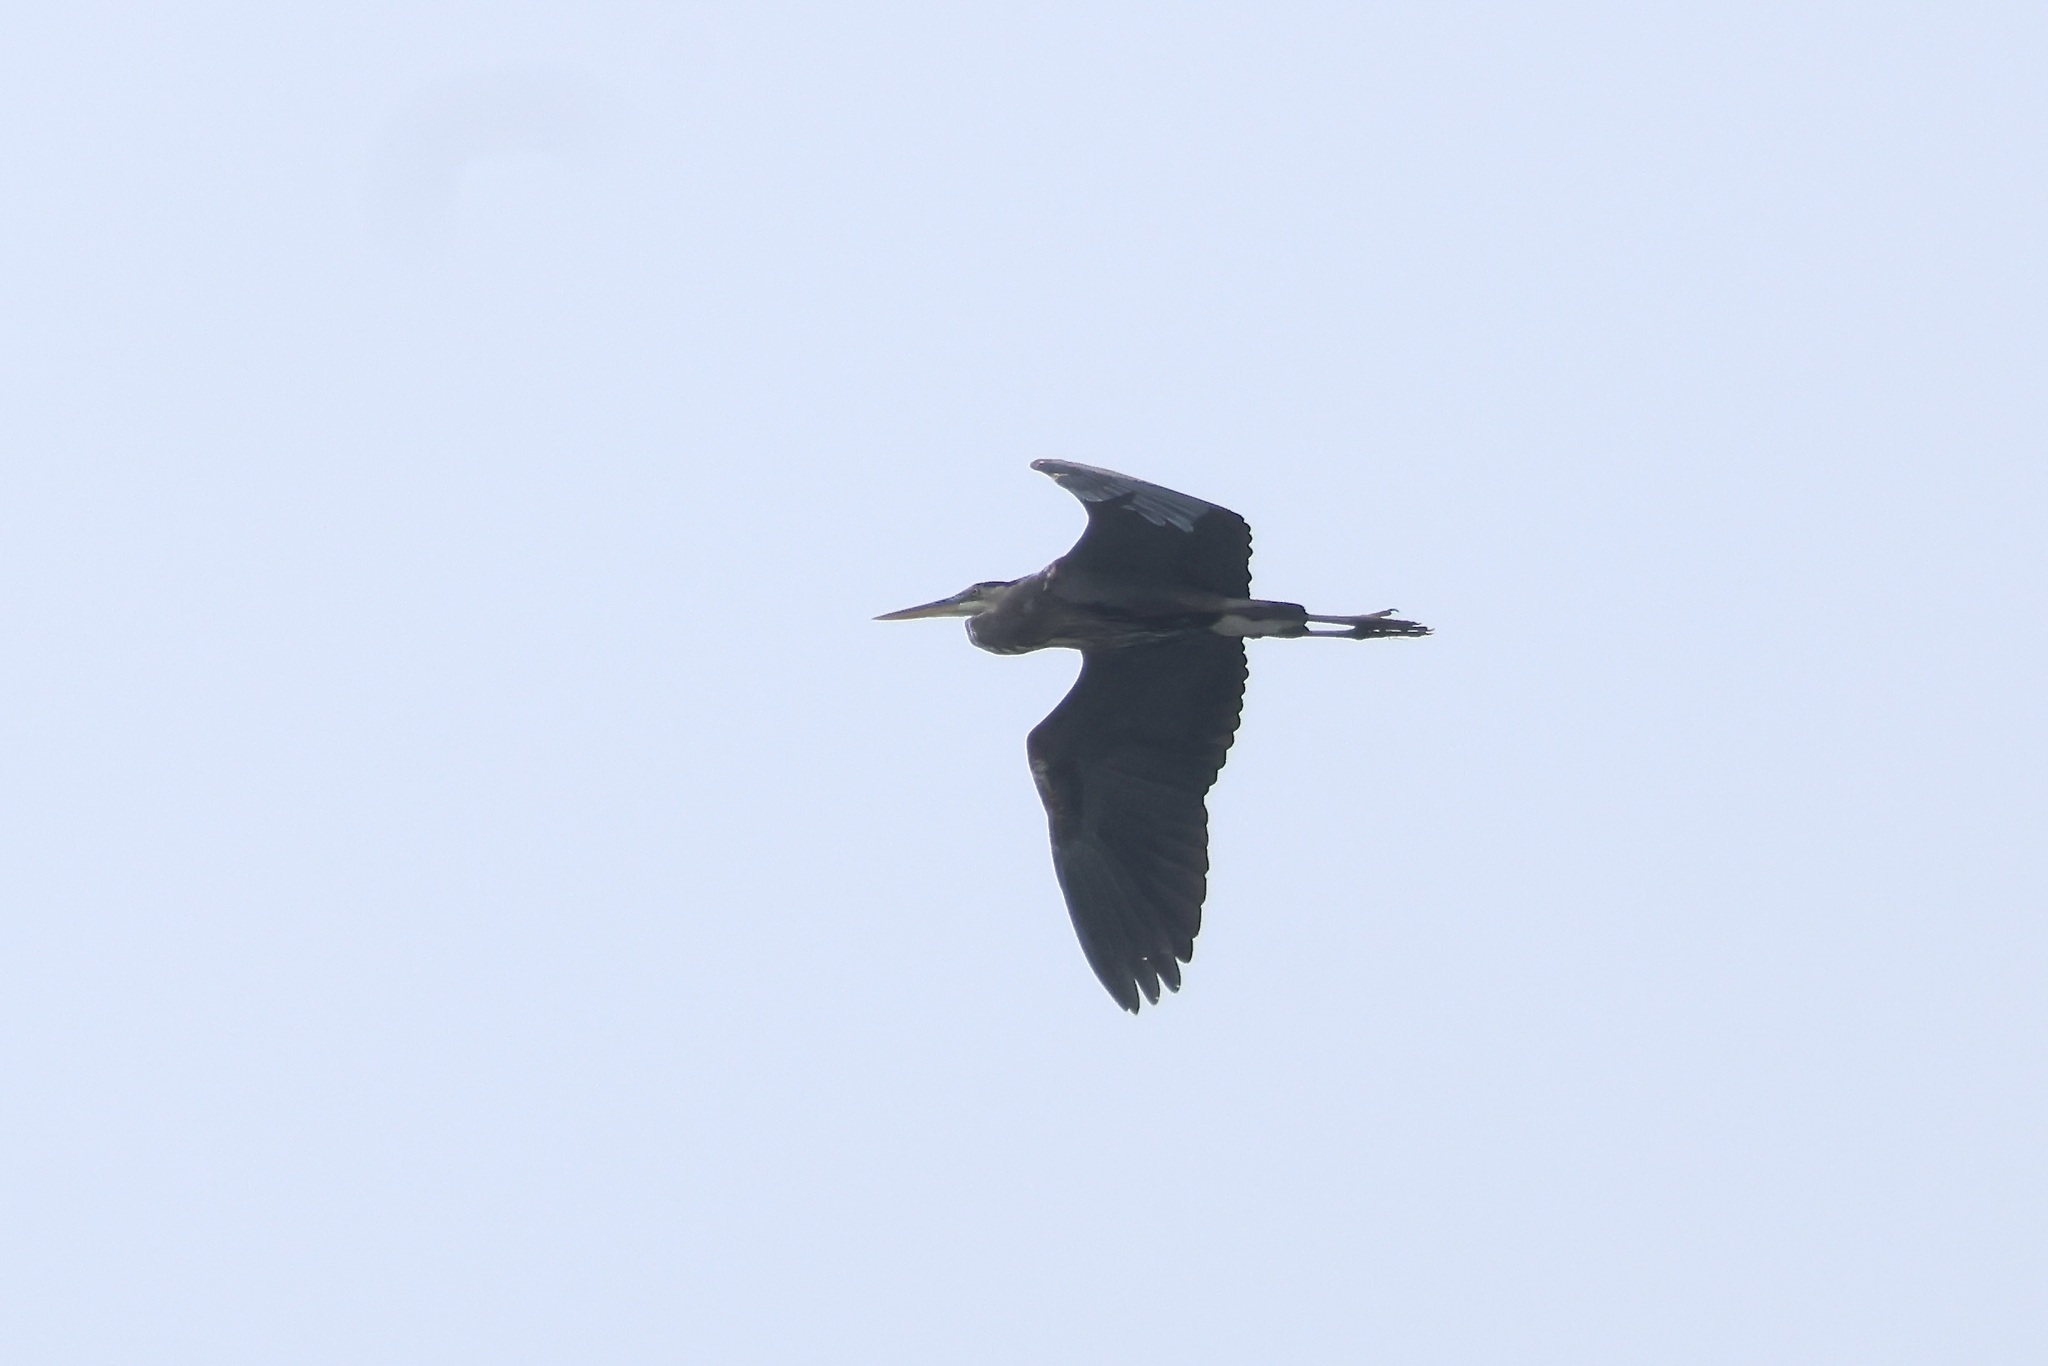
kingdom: Animalia
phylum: Chordata
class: Aves
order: Pelecaniformes
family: Ardeidae
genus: Ardea
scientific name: Ardea herodias
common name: Great blue heron
